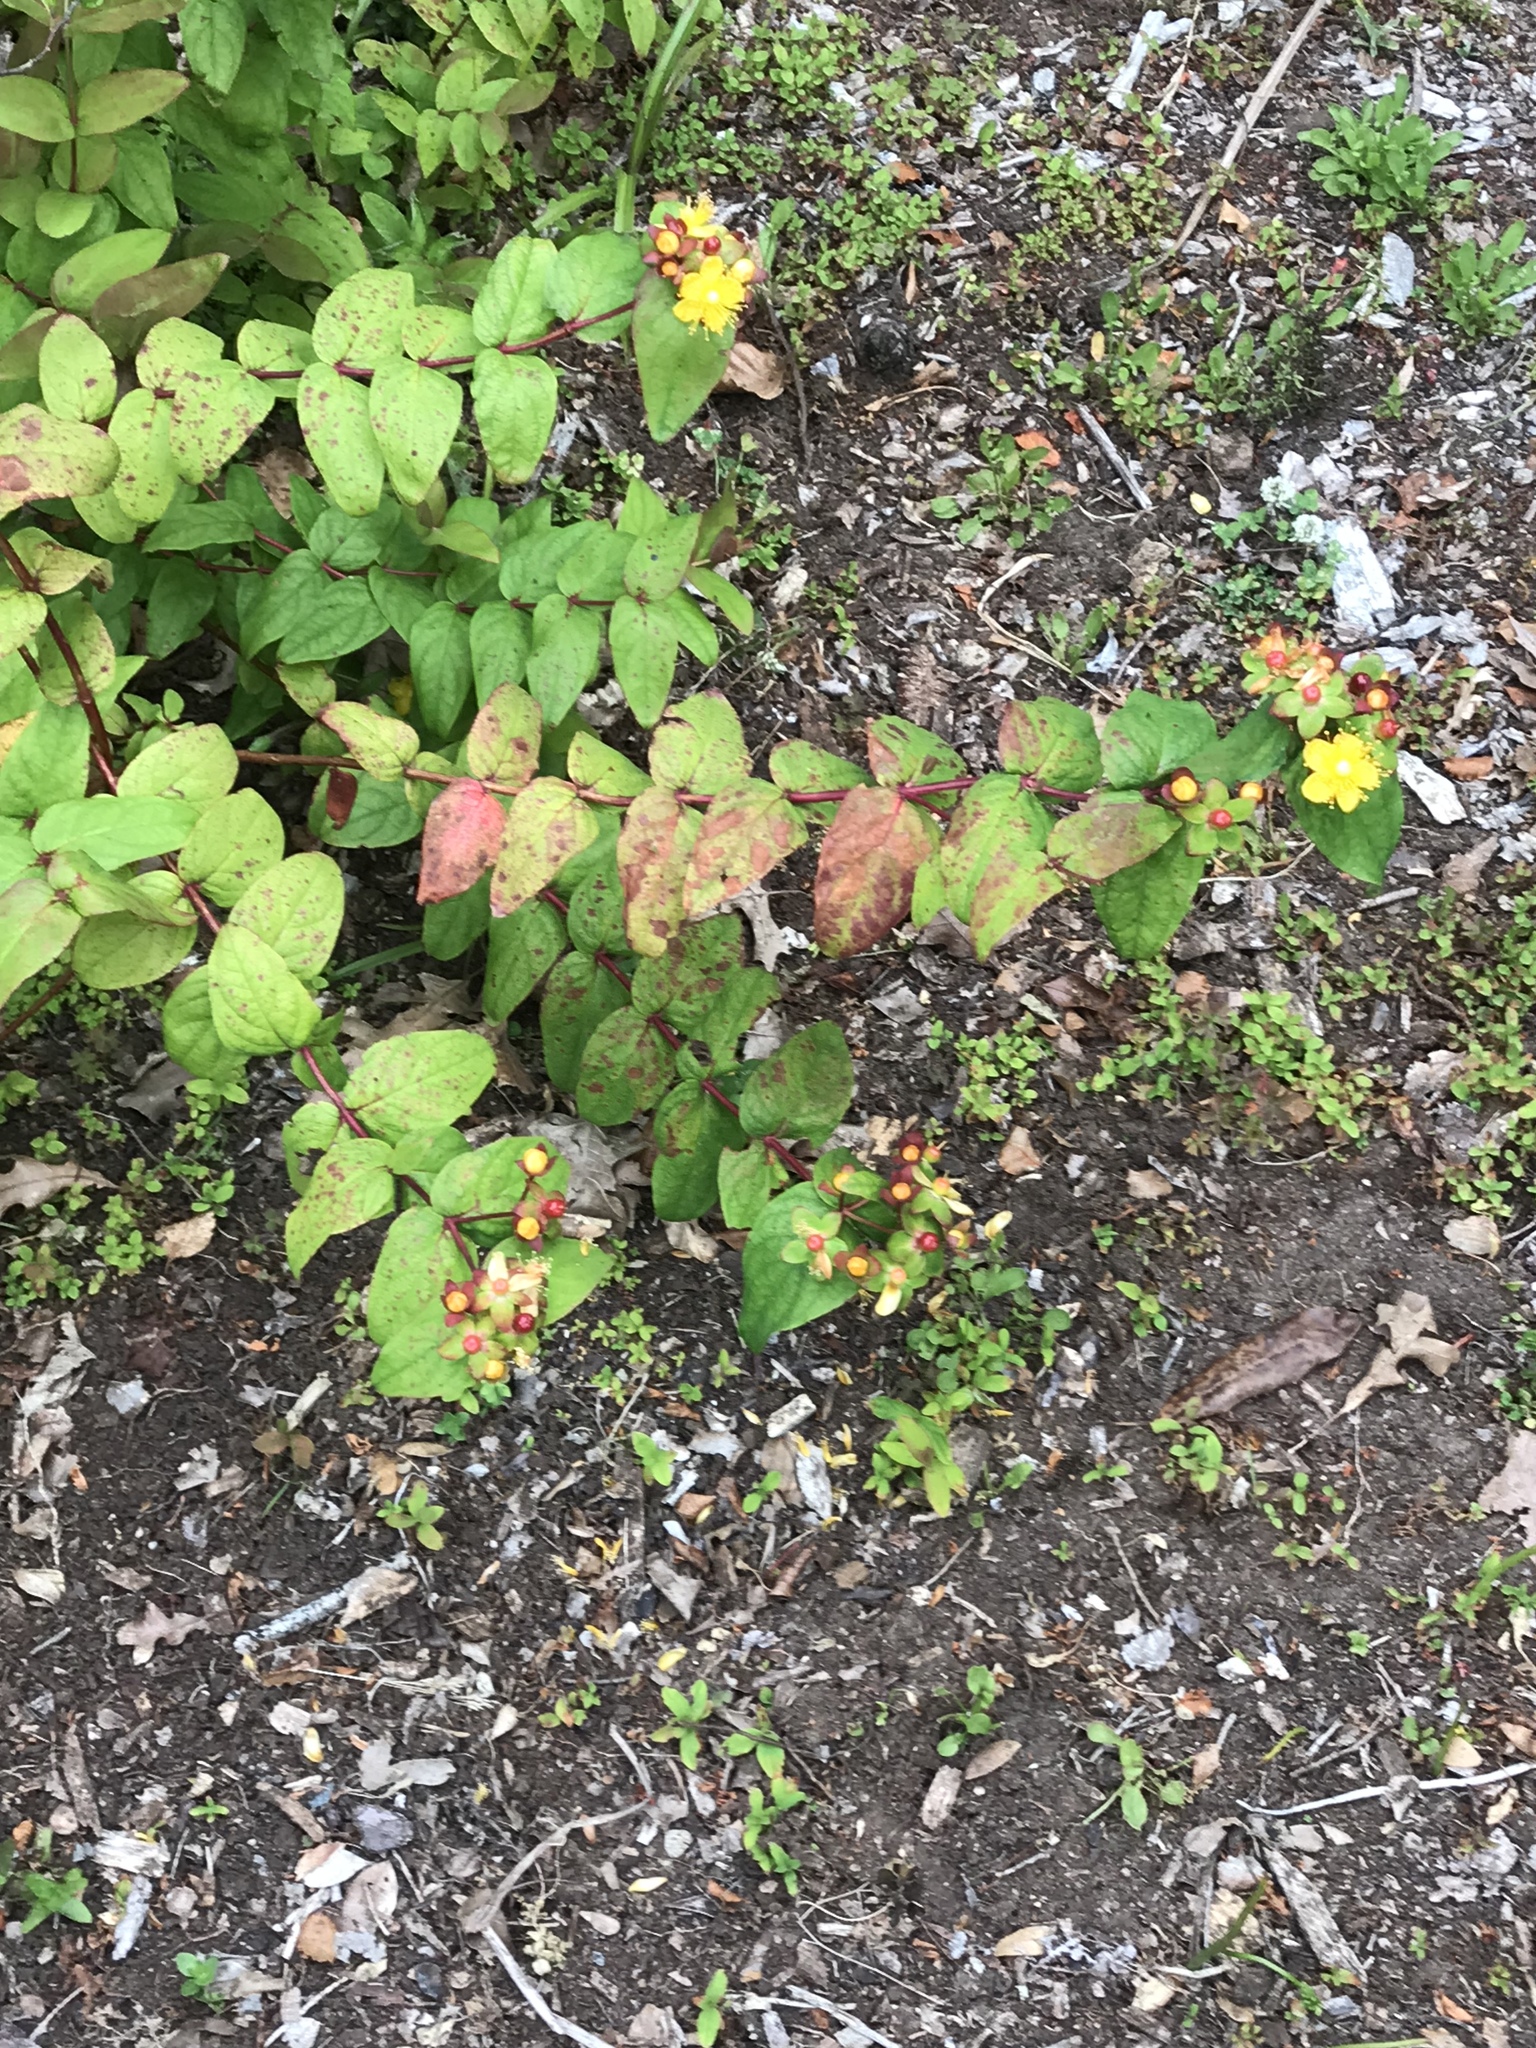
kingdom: Plantae
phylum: Tracheophyta
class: Magnoliopsida
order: Malpighiales
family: Hypericaceae
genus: Hypericum
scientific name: Hypericum androsaemum
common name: Sweet-amber
